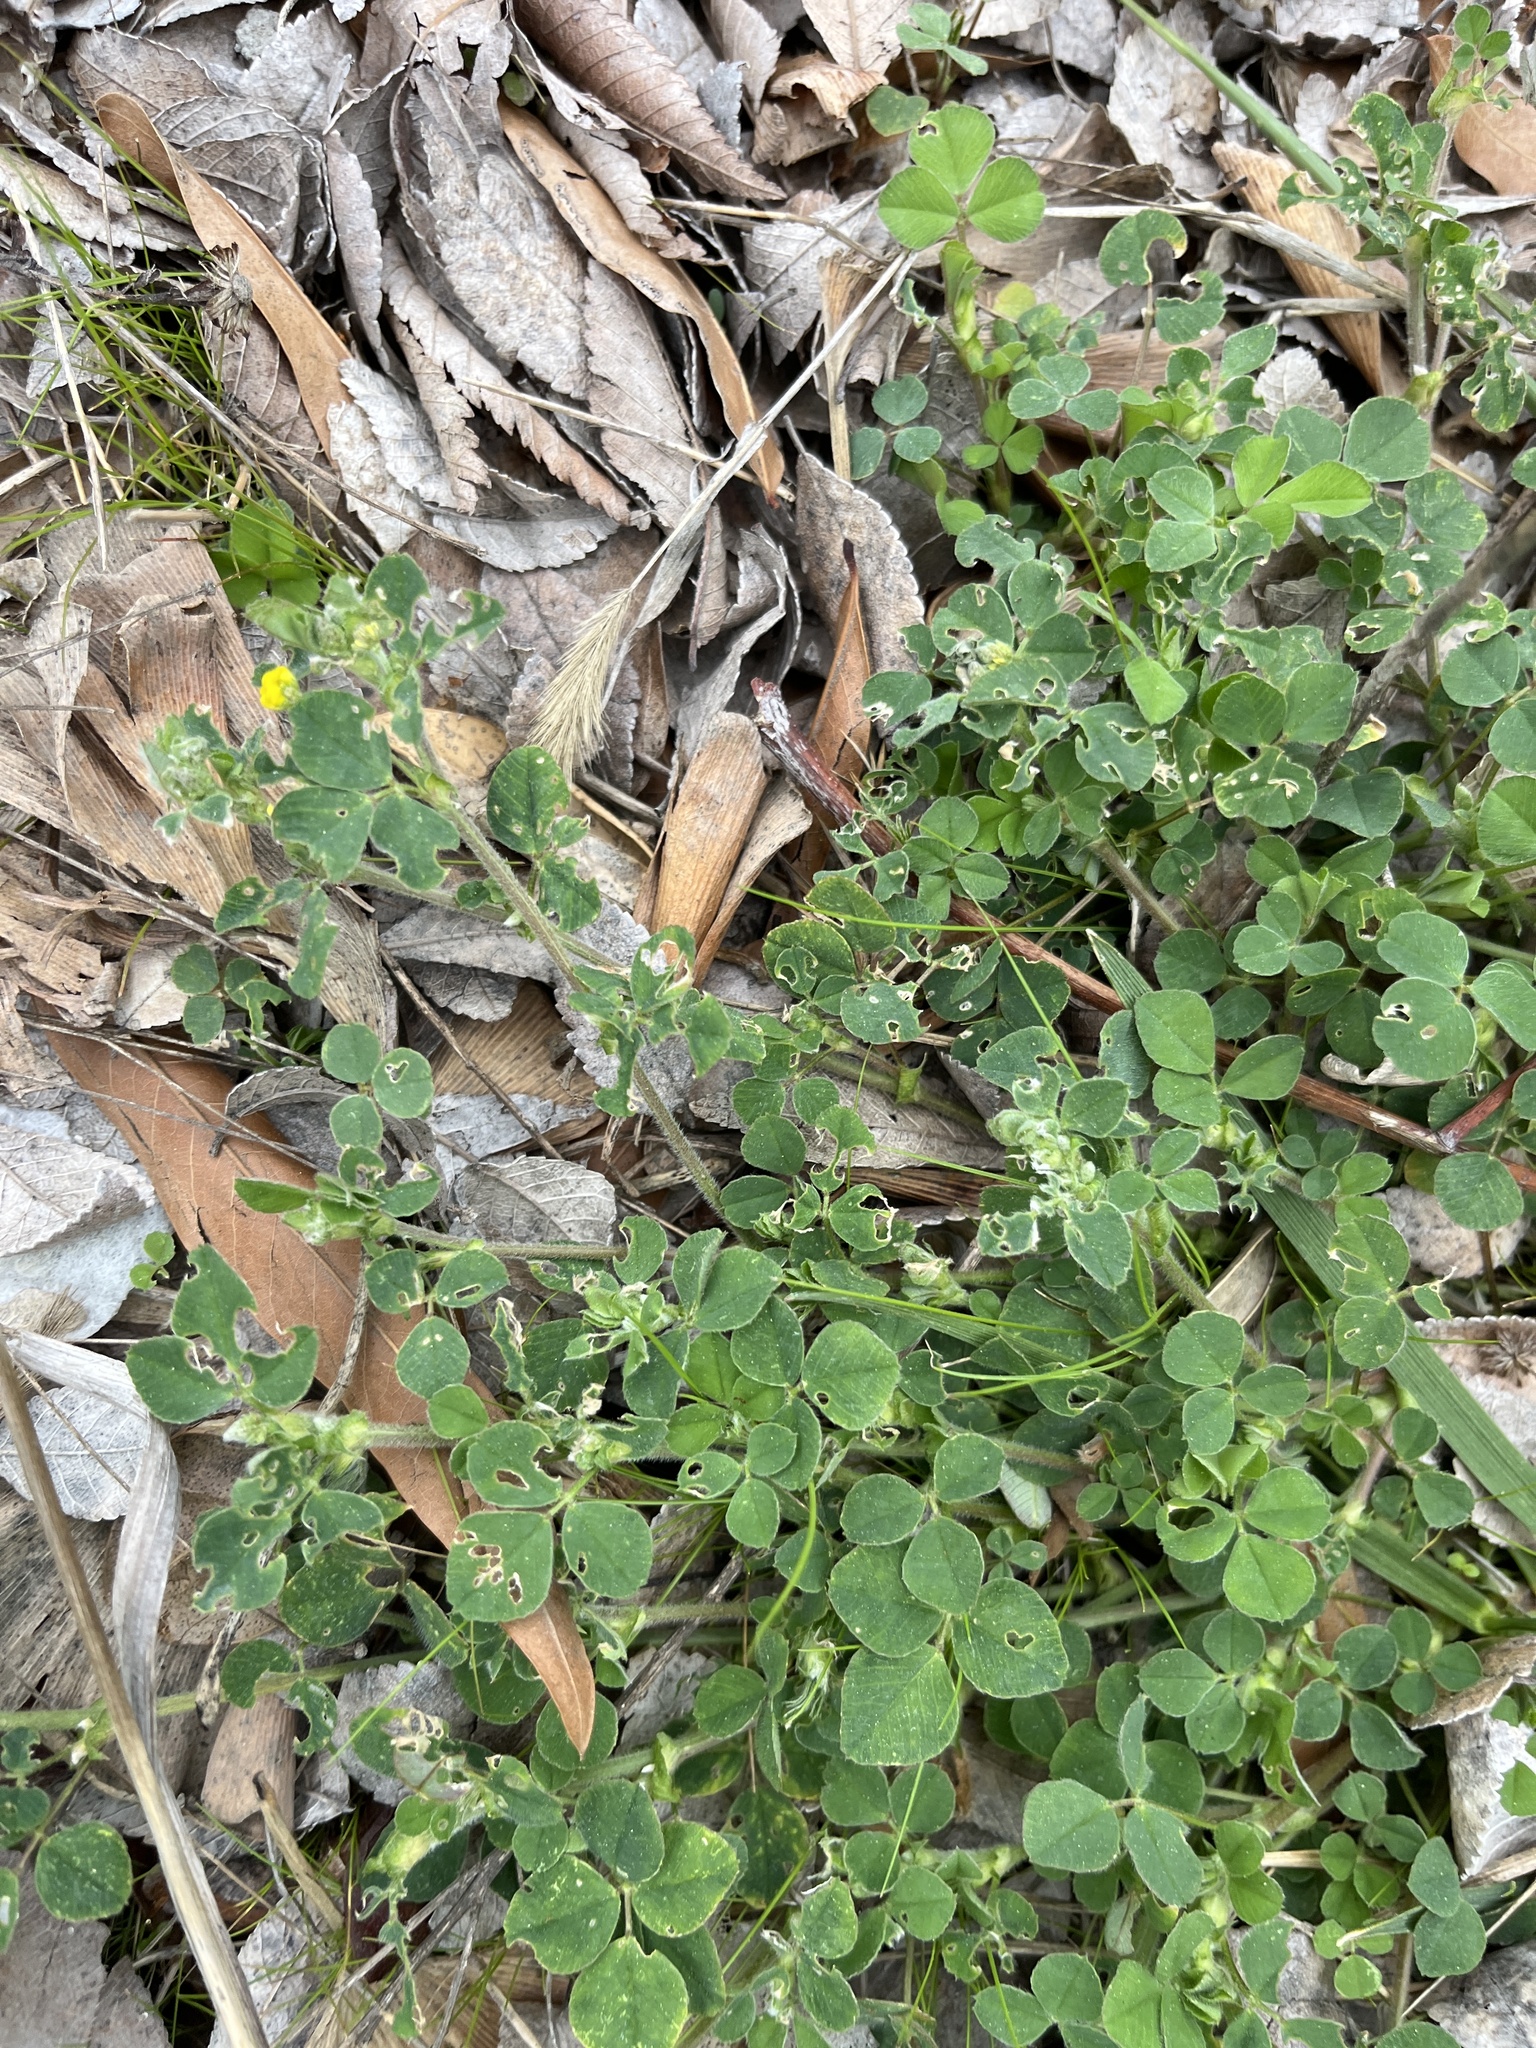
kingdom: Plantae
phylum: Tracheophyta
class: Magnoliopsida
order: Fabales
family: Fabaceae
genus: Medicago
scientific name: Medicago lupulina
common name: Black medick
